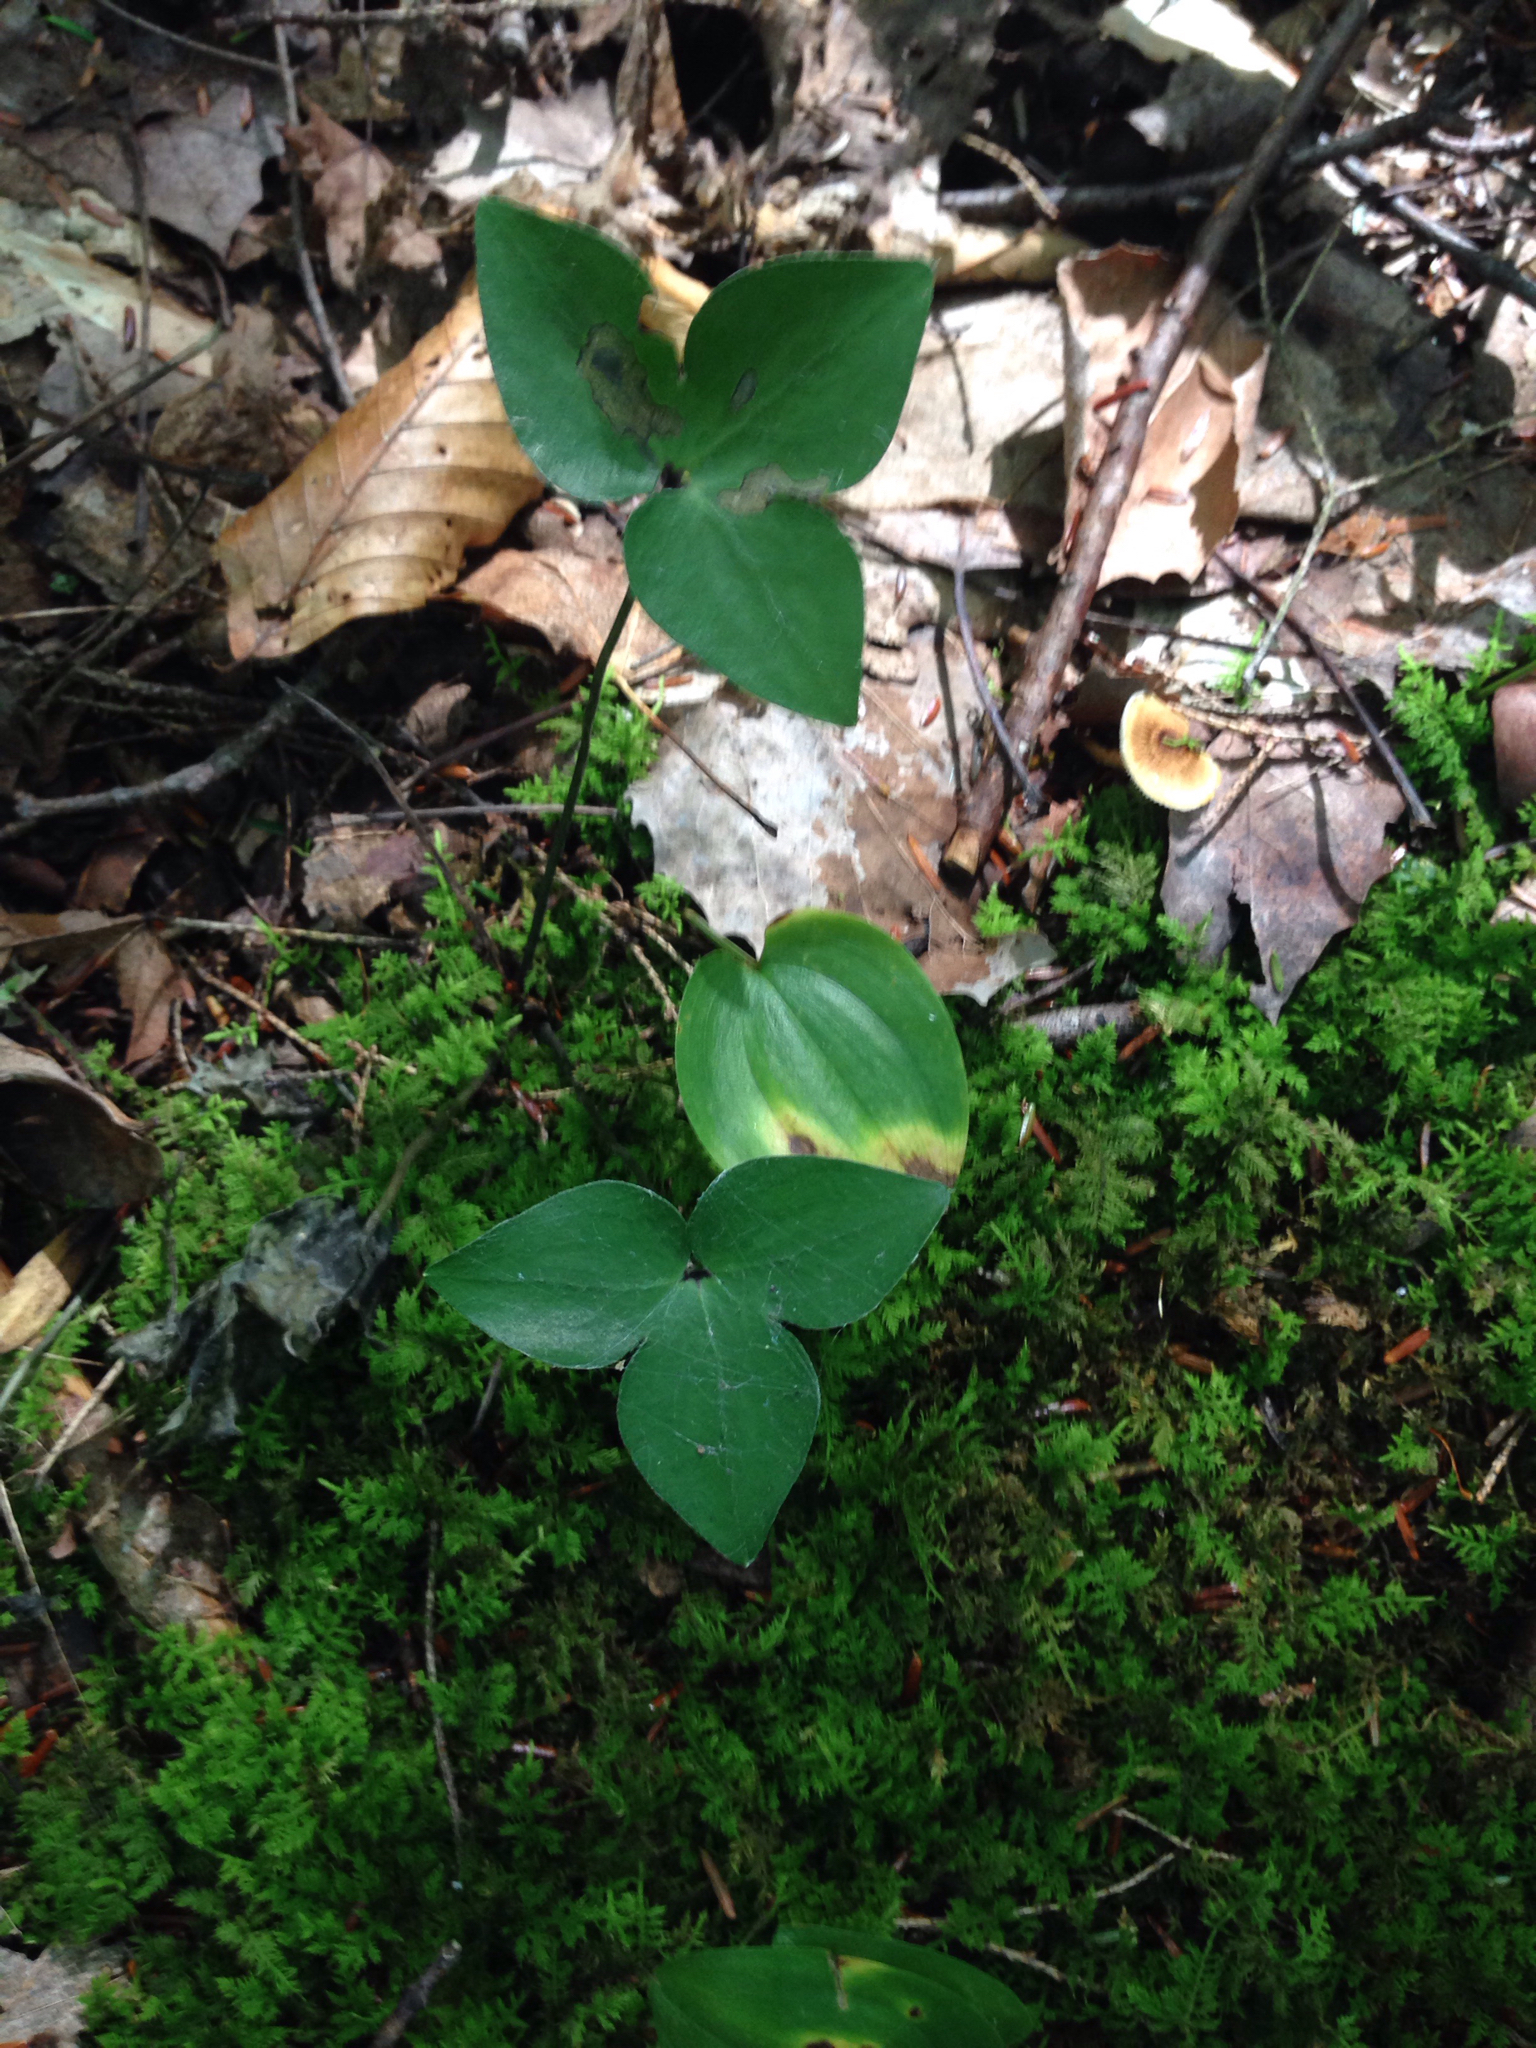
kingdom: Plantae
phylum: Tracheophyta
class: Magnoliopsida
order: Ranunculales
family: Ranunculaceae
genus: Hepatica
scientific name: Hepatica acutiloba
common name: Sharp-lobed hepatica
